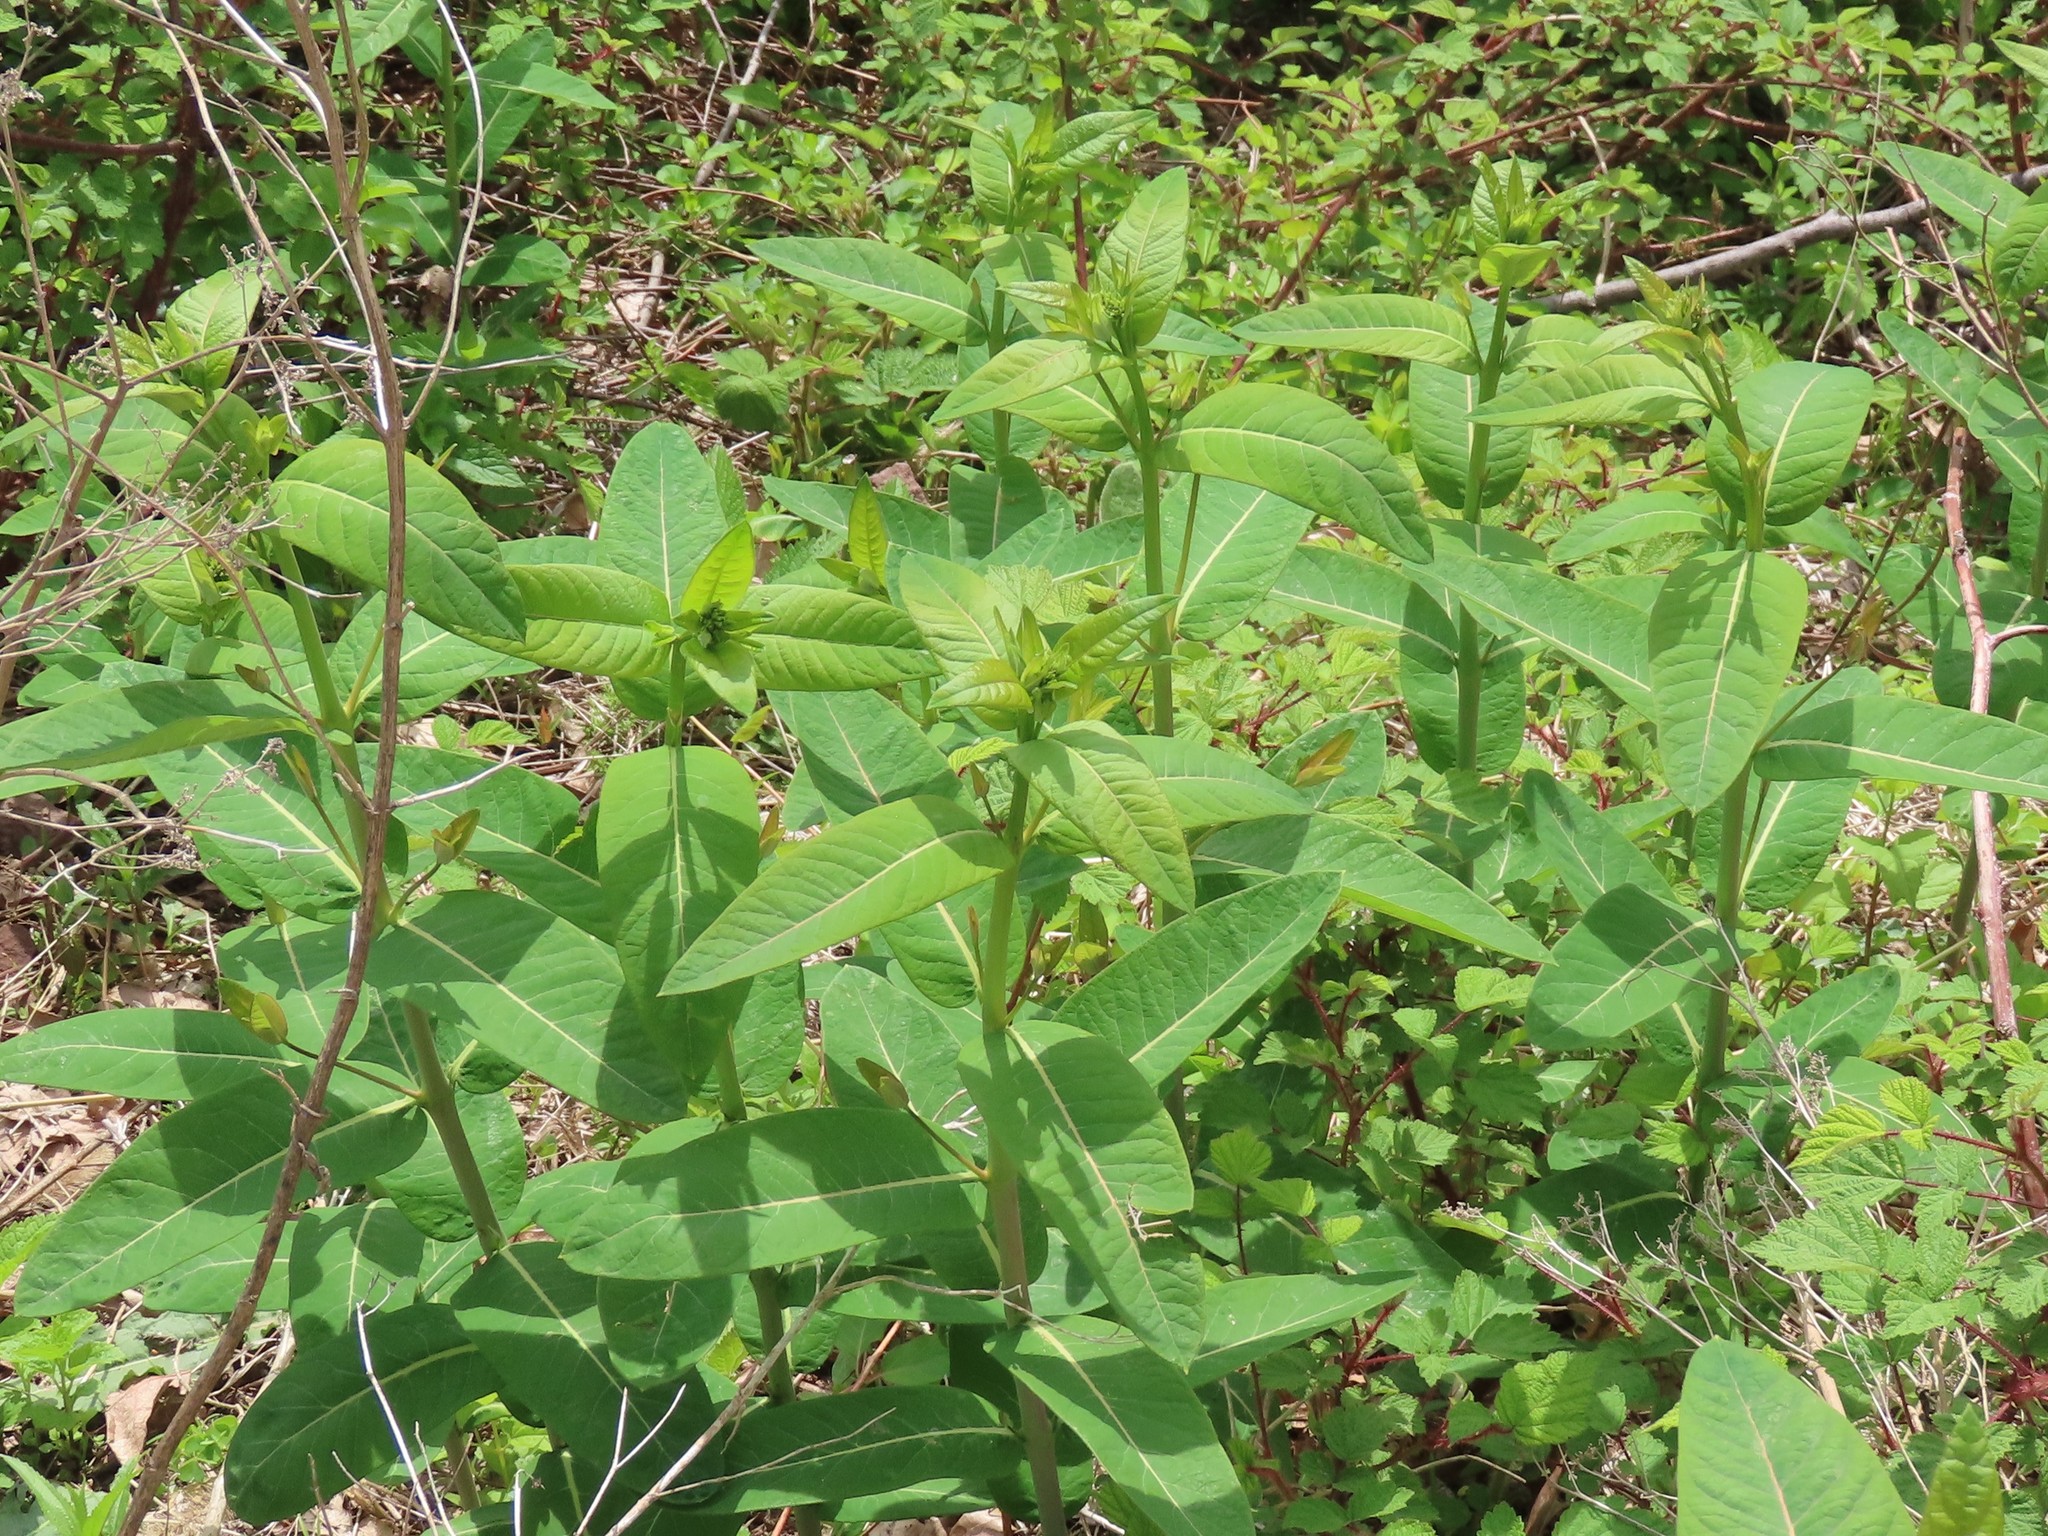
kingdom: Plantae
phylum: Tracheophyta
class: Magnoliopsida
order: Gentianales
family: Apocynaceae
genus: Apocynum
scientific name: Apocynum cannabinum
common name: Hemp dogbane
